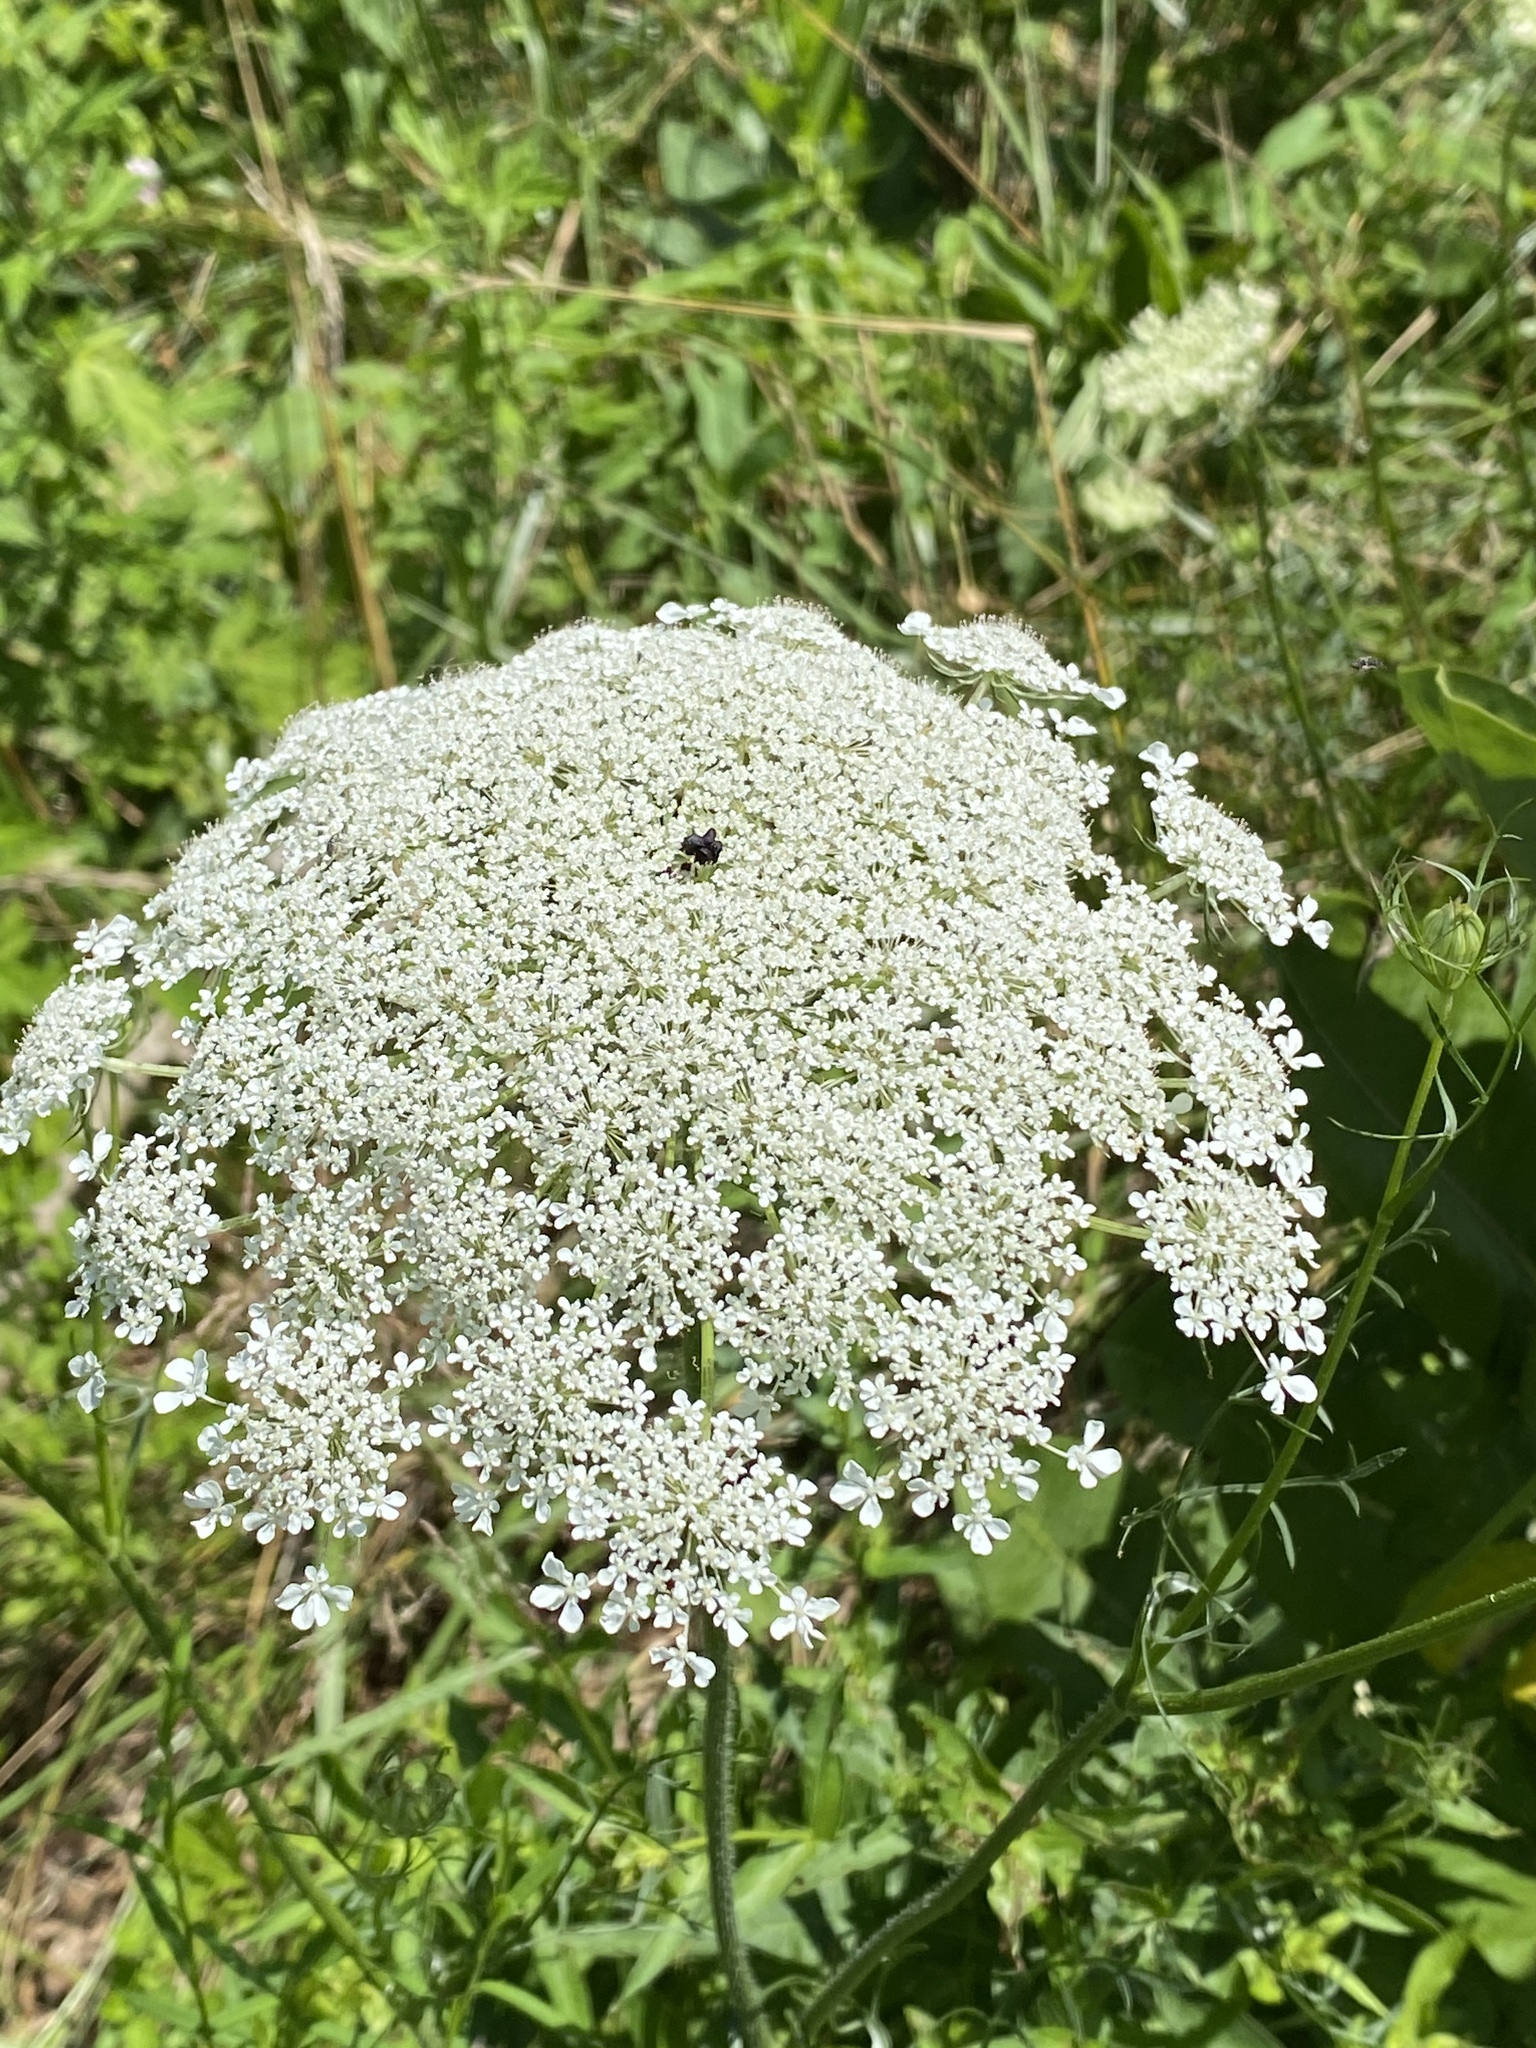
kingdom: Plantae
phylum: Tracheophyta
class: Magnoliopsida
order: Apiales
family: Apiaceae
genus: Daucus
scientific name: Daucus carota
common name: Wild carrot
